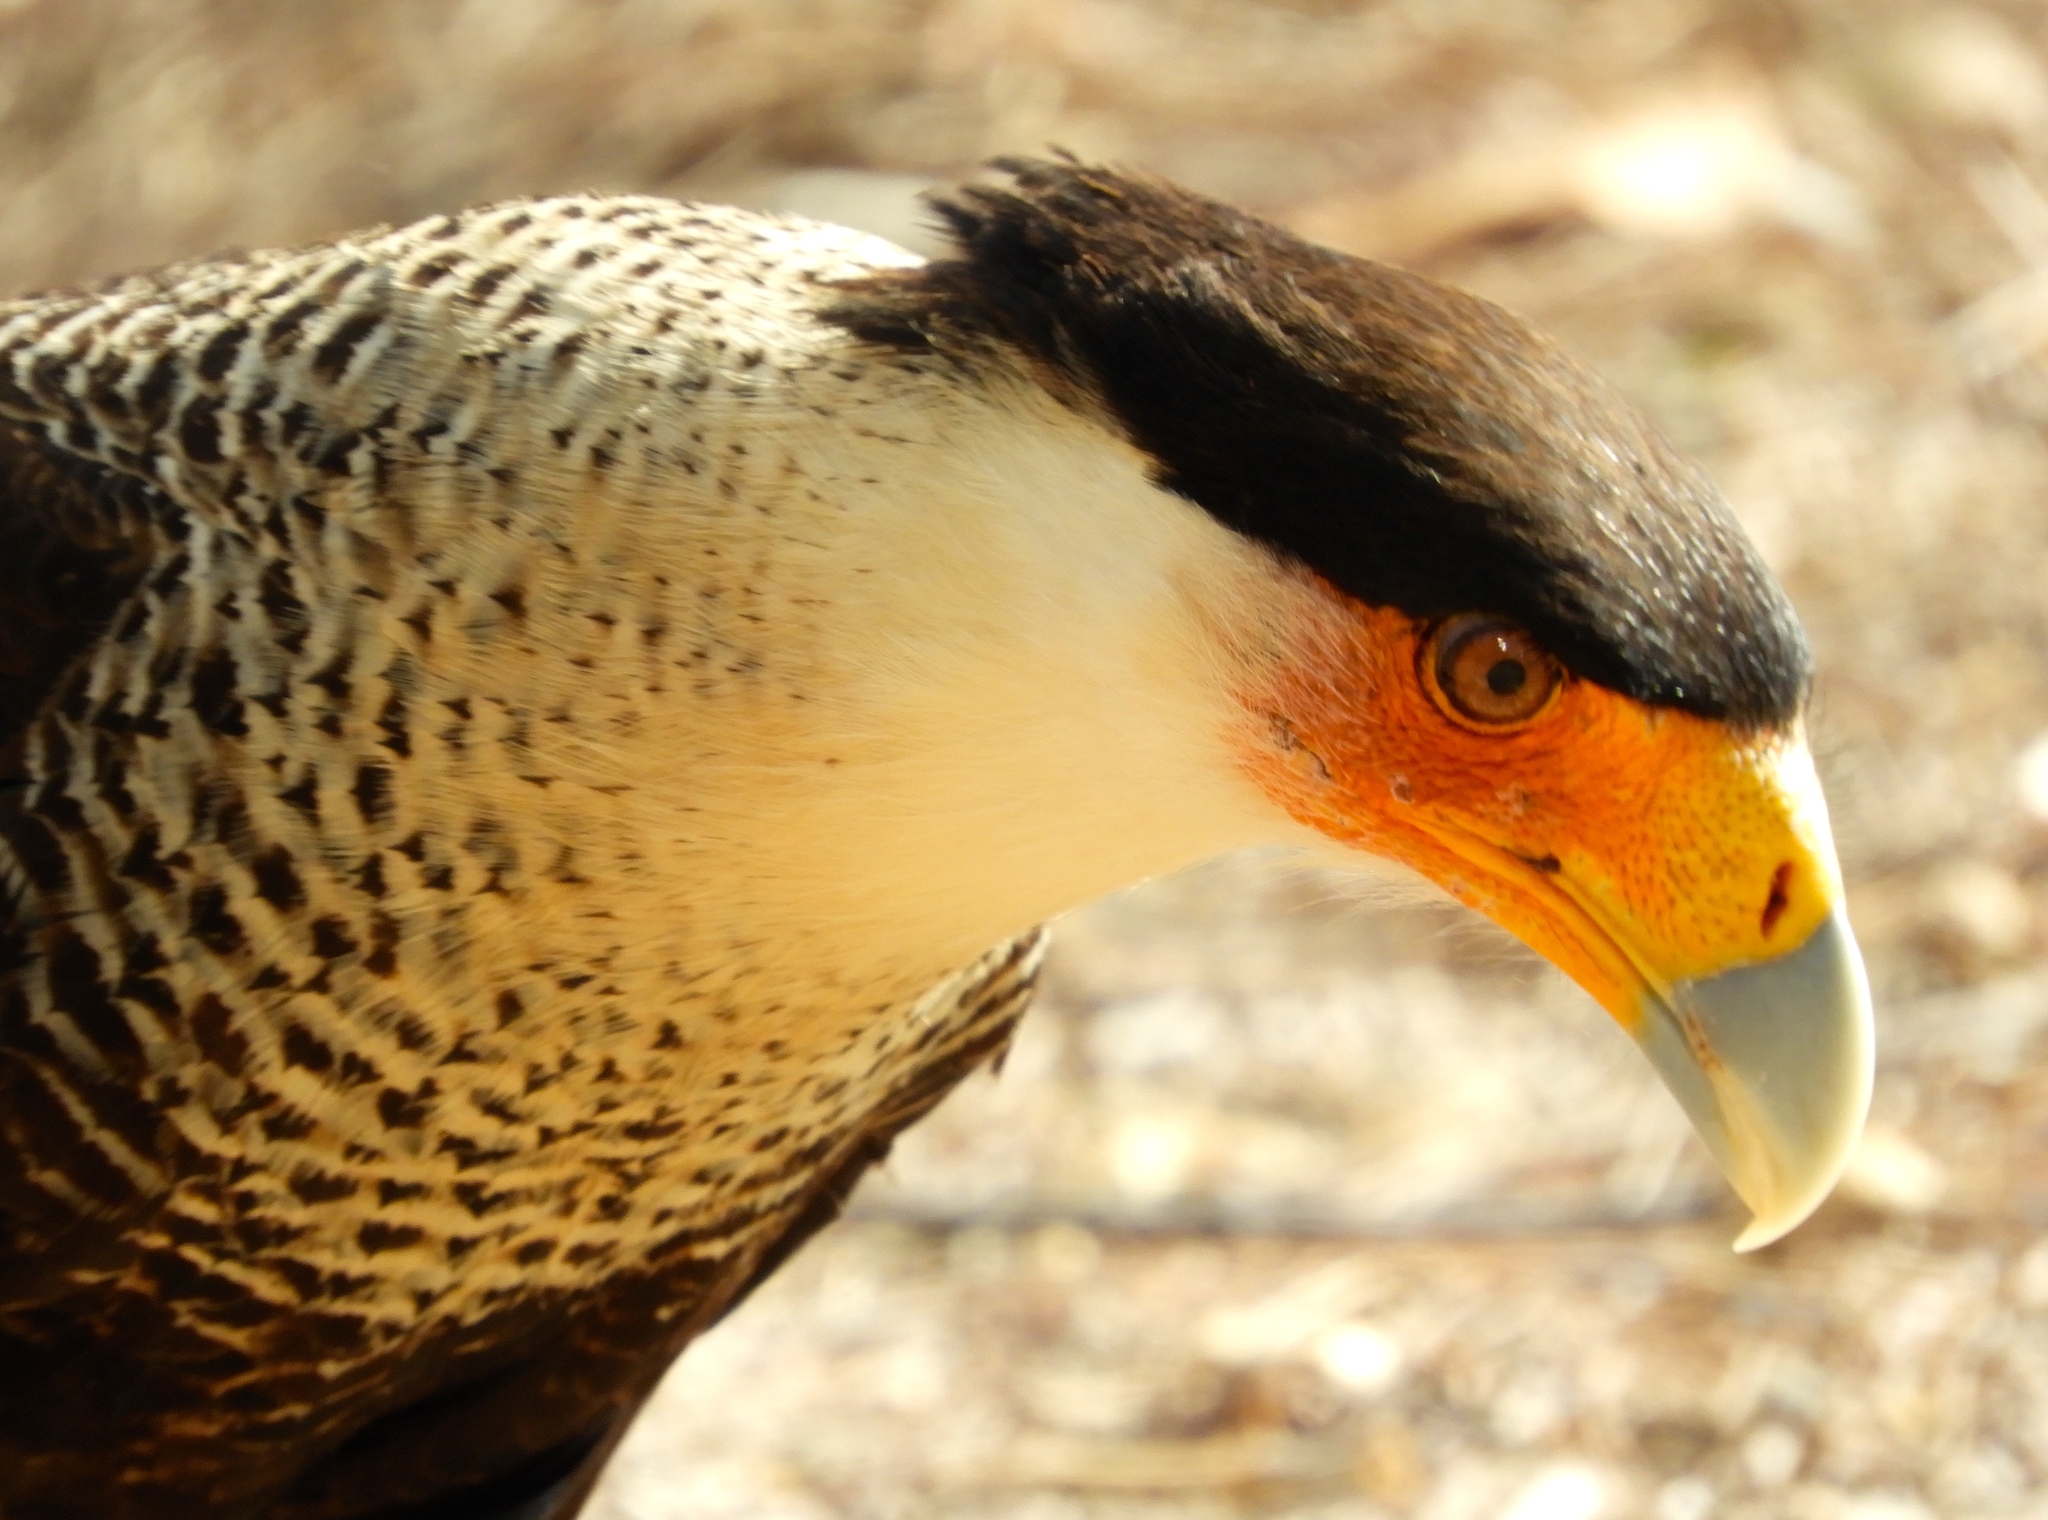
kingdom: Animalia
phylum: Chordata
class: Aves
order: Falconiformes
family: Falconidae
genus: Caracara
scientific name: Caracara plancus
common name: Southern caracara
